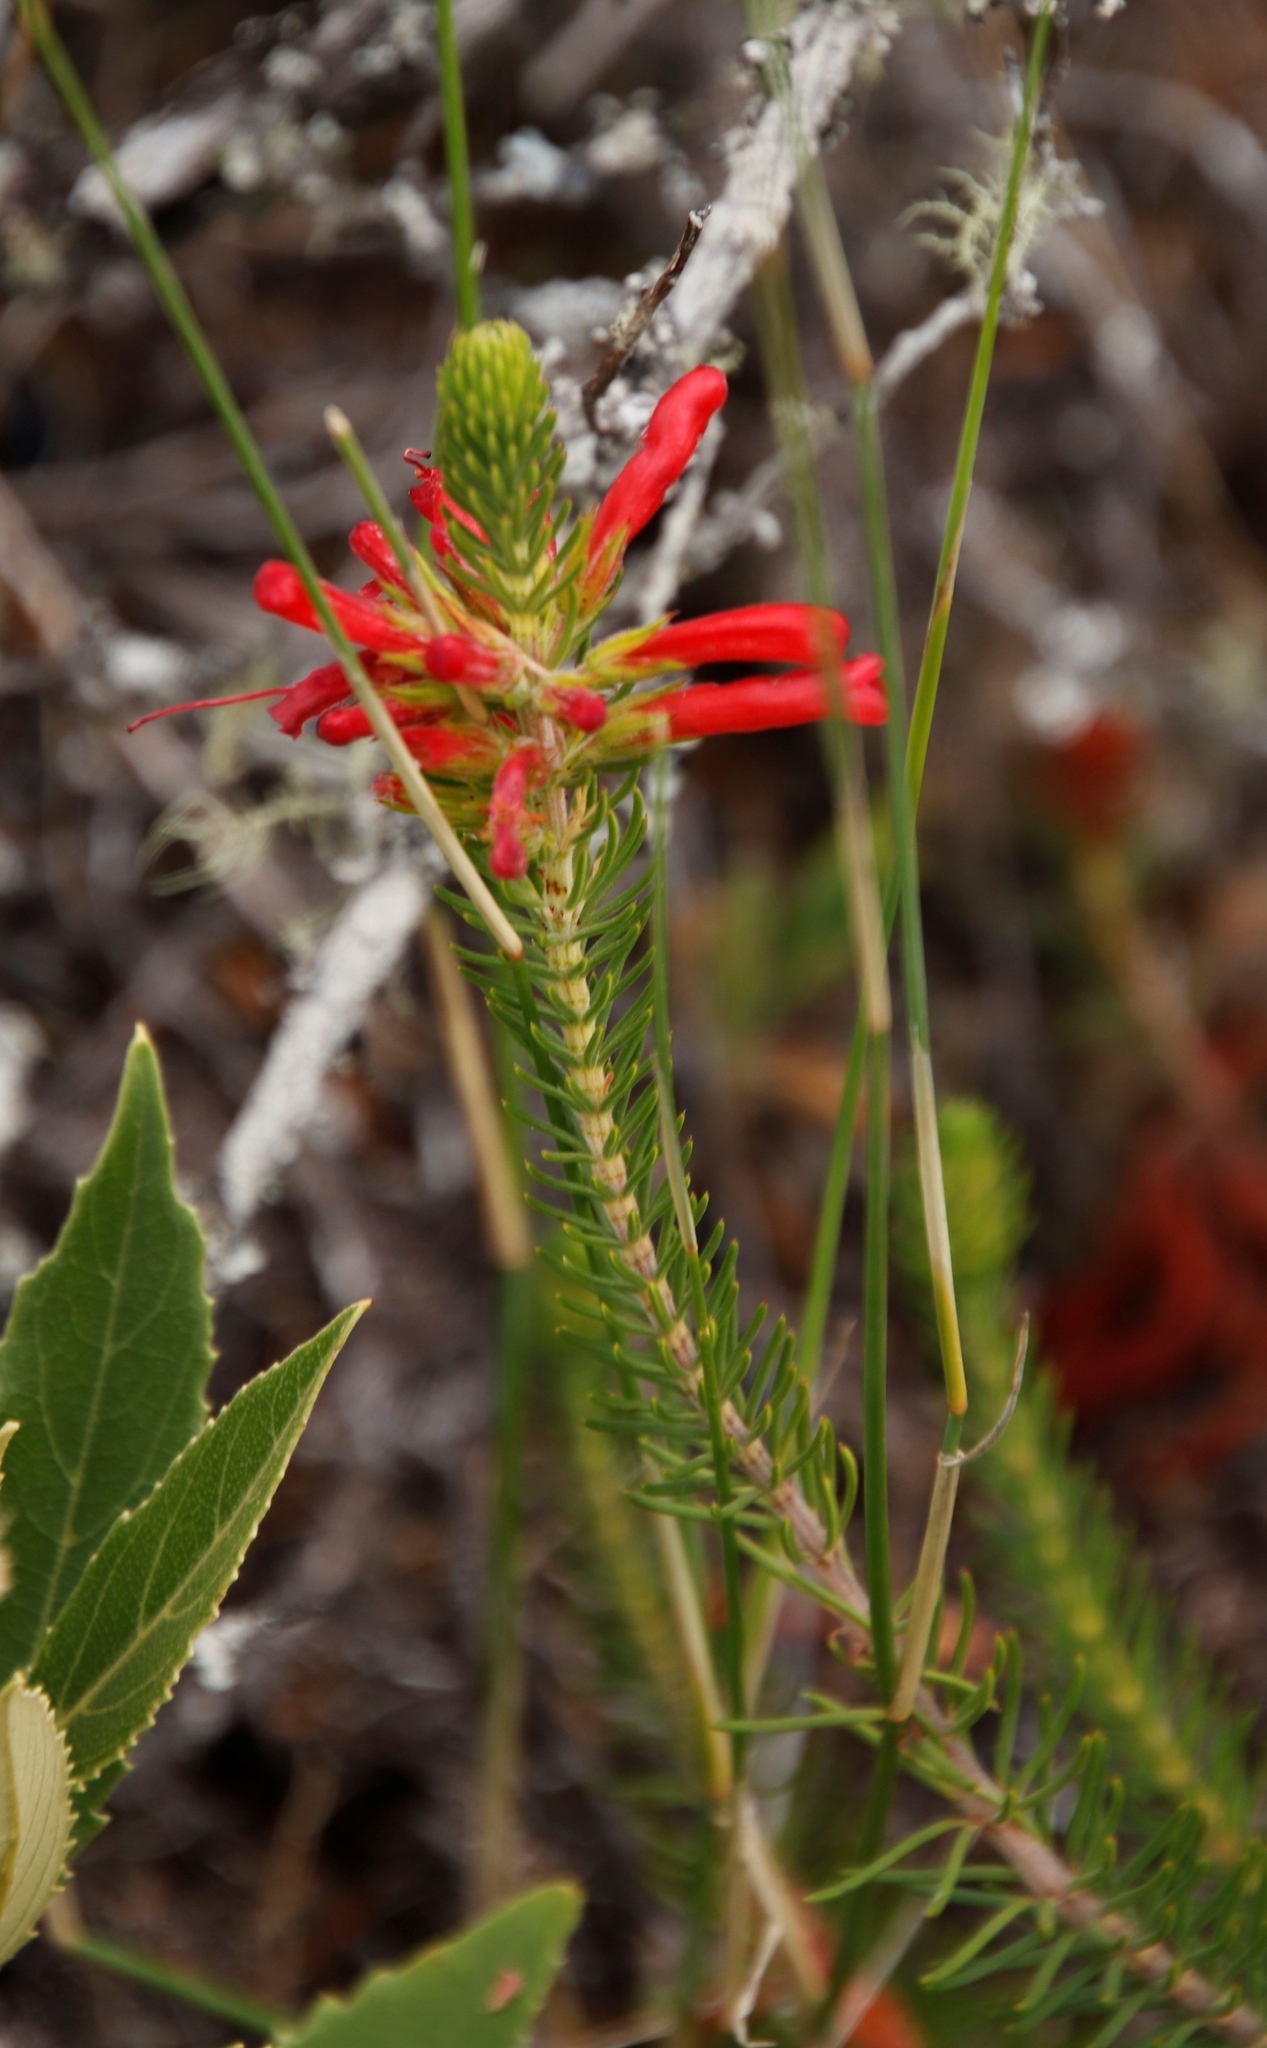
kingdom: Plantae
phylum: Tracheophyta
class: Magnoliopsida
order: Ericales
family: Ericaceae
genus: Erica
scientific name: Erica abietina
